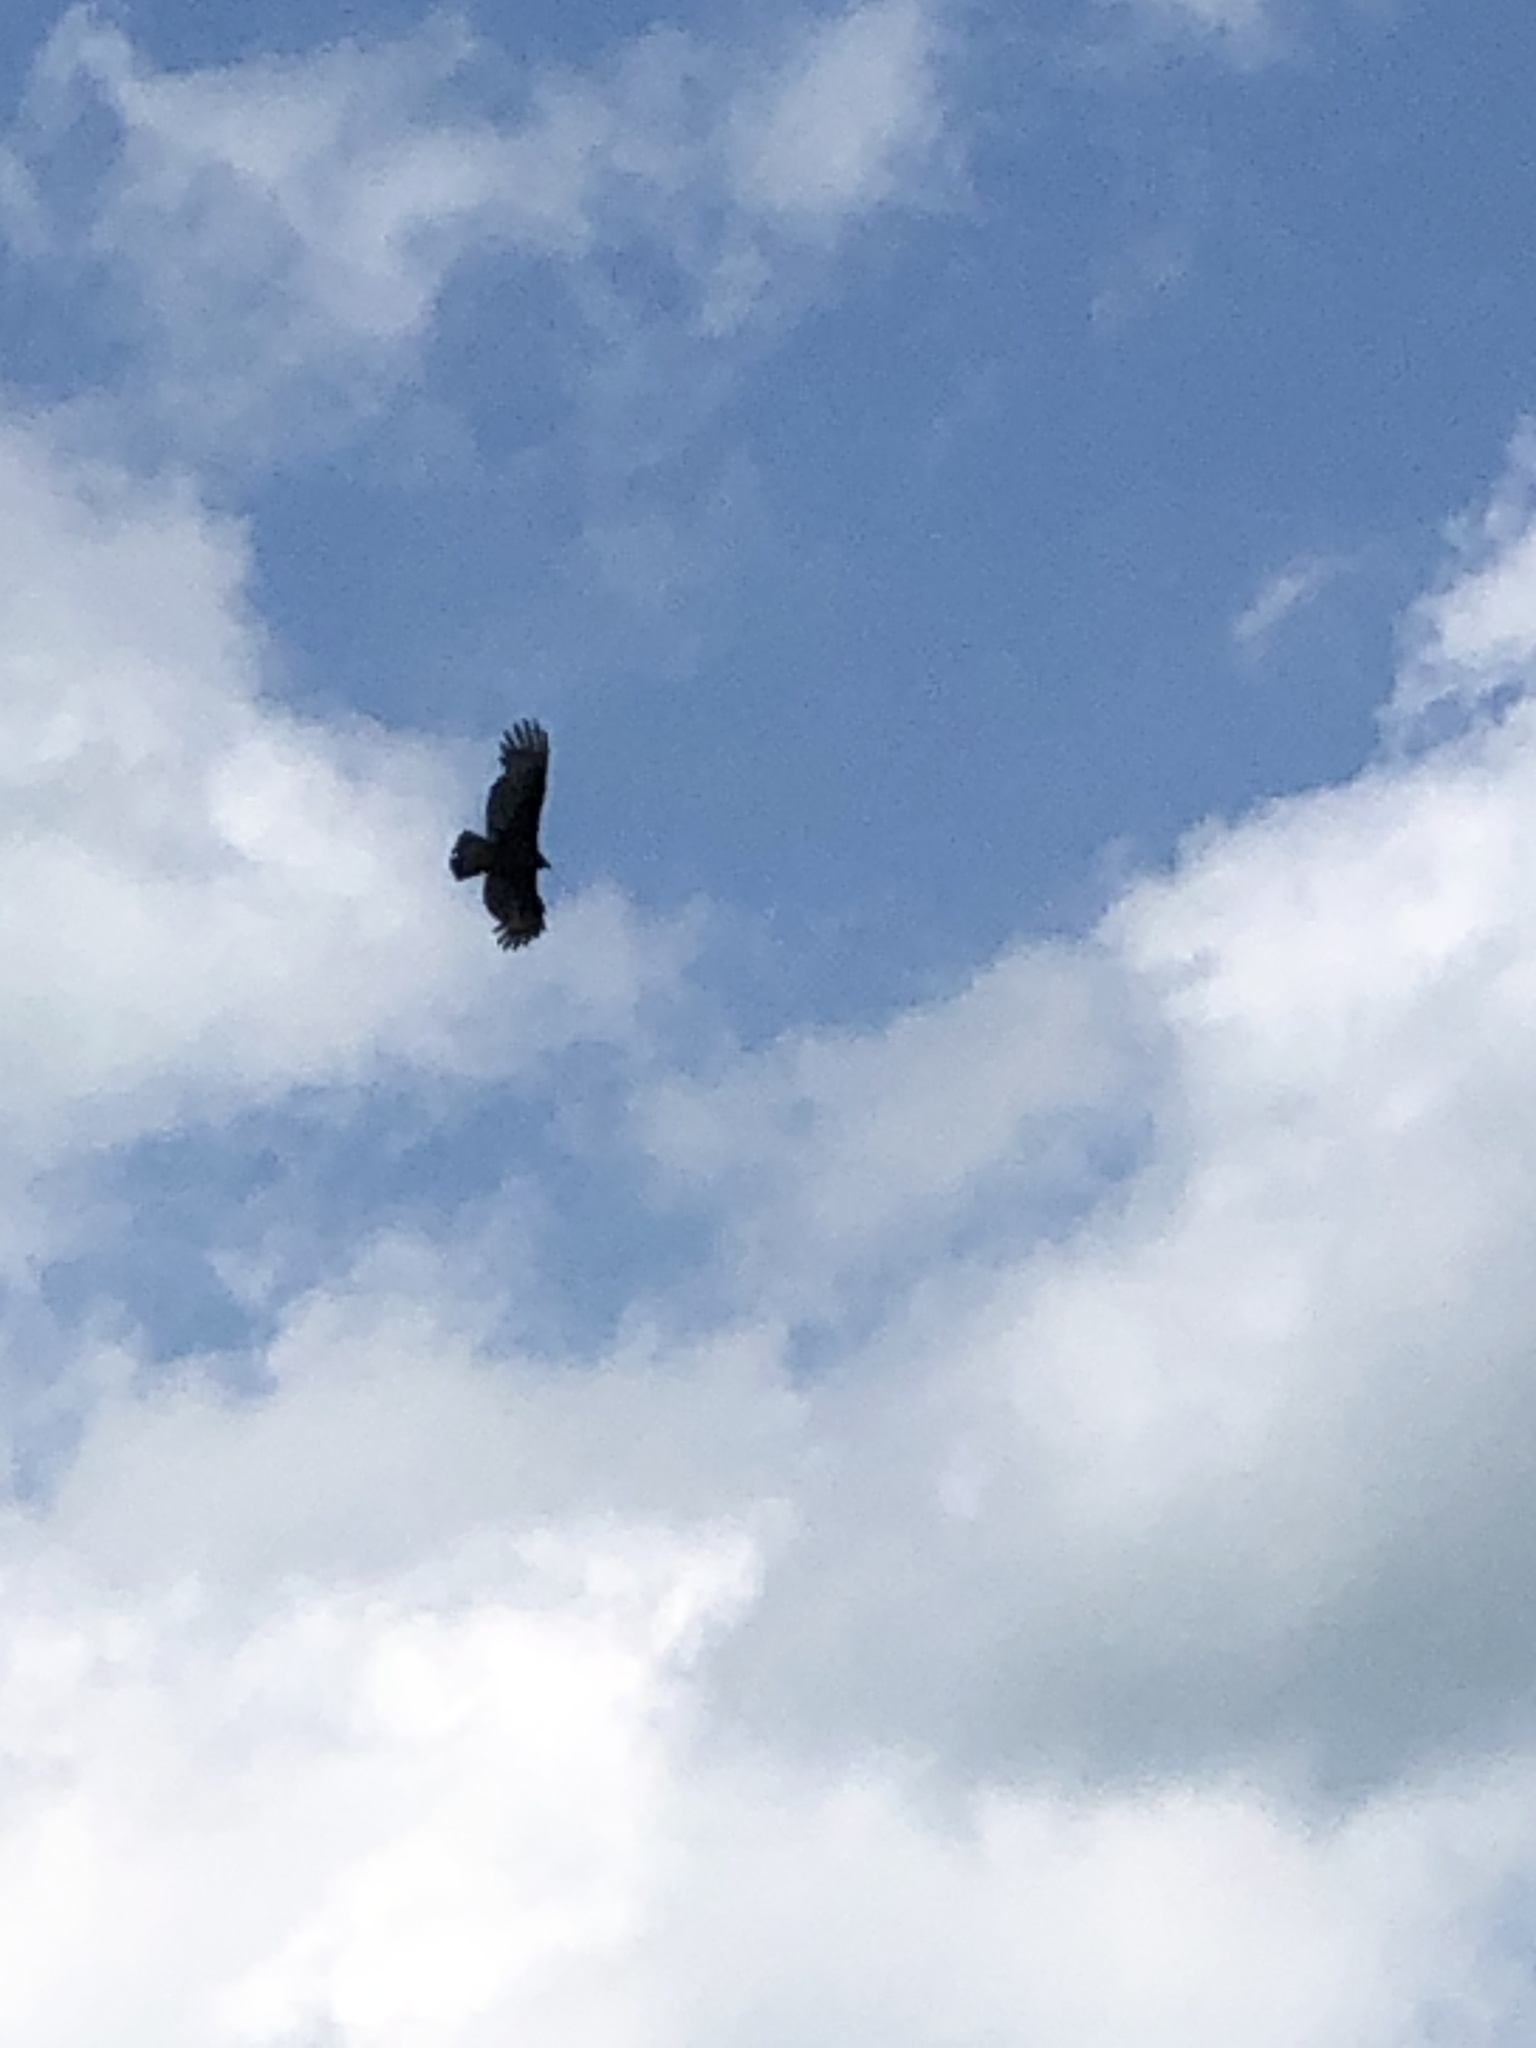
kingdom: Animalia
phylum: Chordata
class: Aves
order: Accipitriformes
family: Cathartidae
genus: Cathartes
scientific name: Cathartes aura
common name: Turkey vulture
